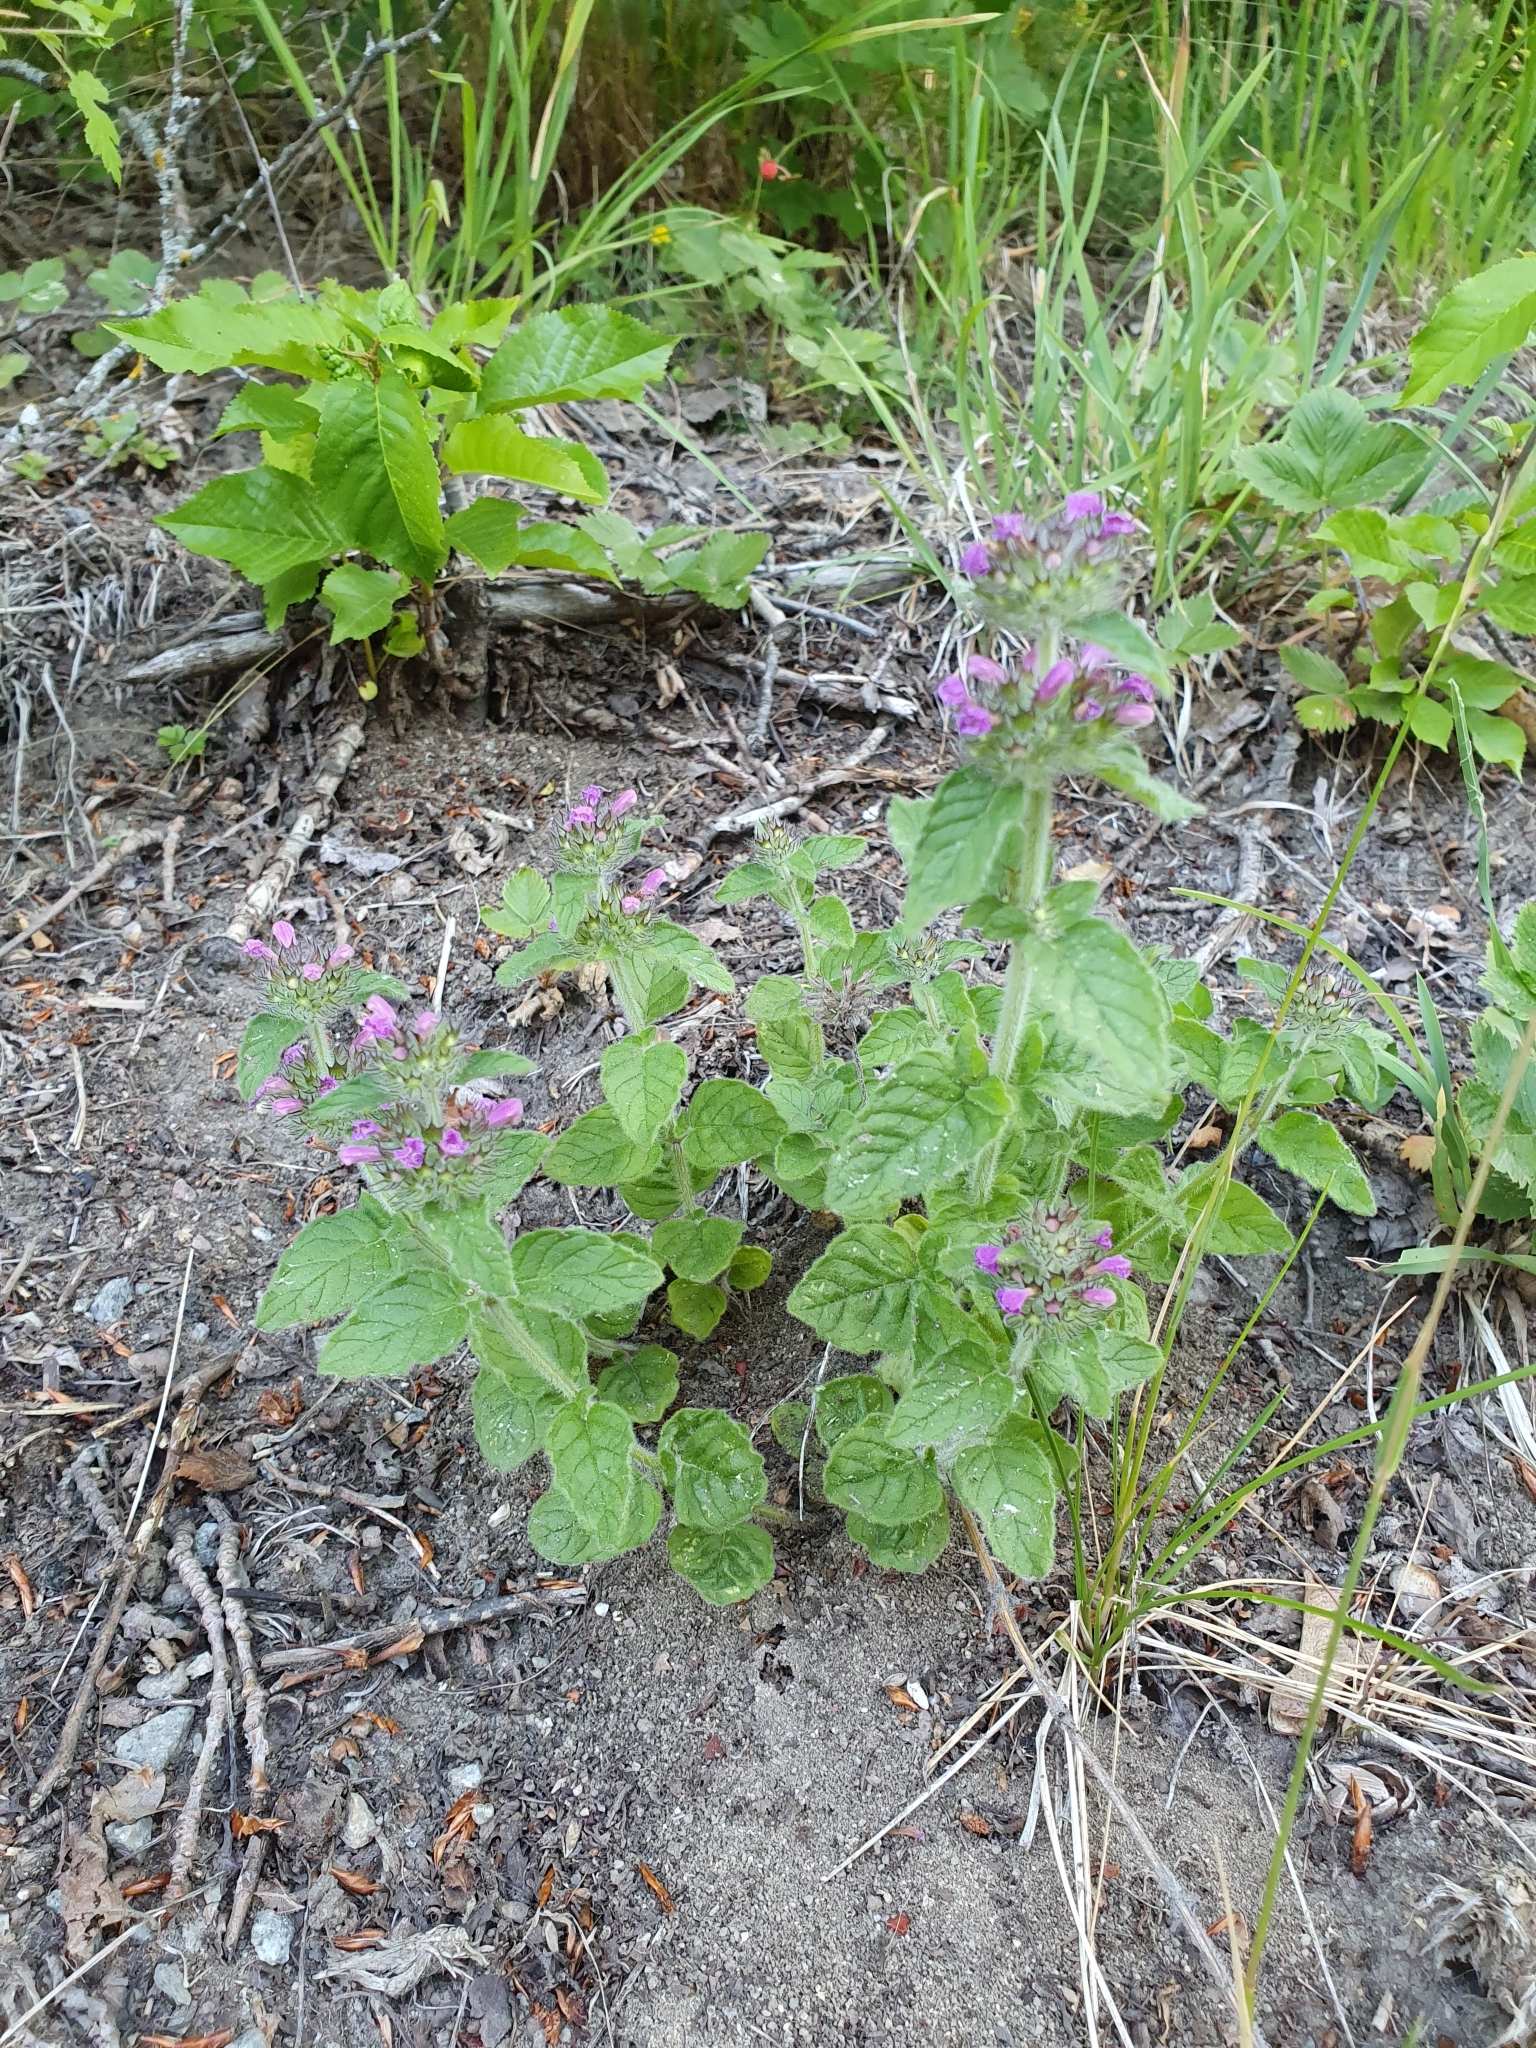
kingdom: Plantae
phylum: Tracheophyta
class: Magnoliopsida
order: Lamiales
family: Lamiaceae
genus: Clinopodium
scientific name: Clinopodium vulgare
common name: Wild basil
